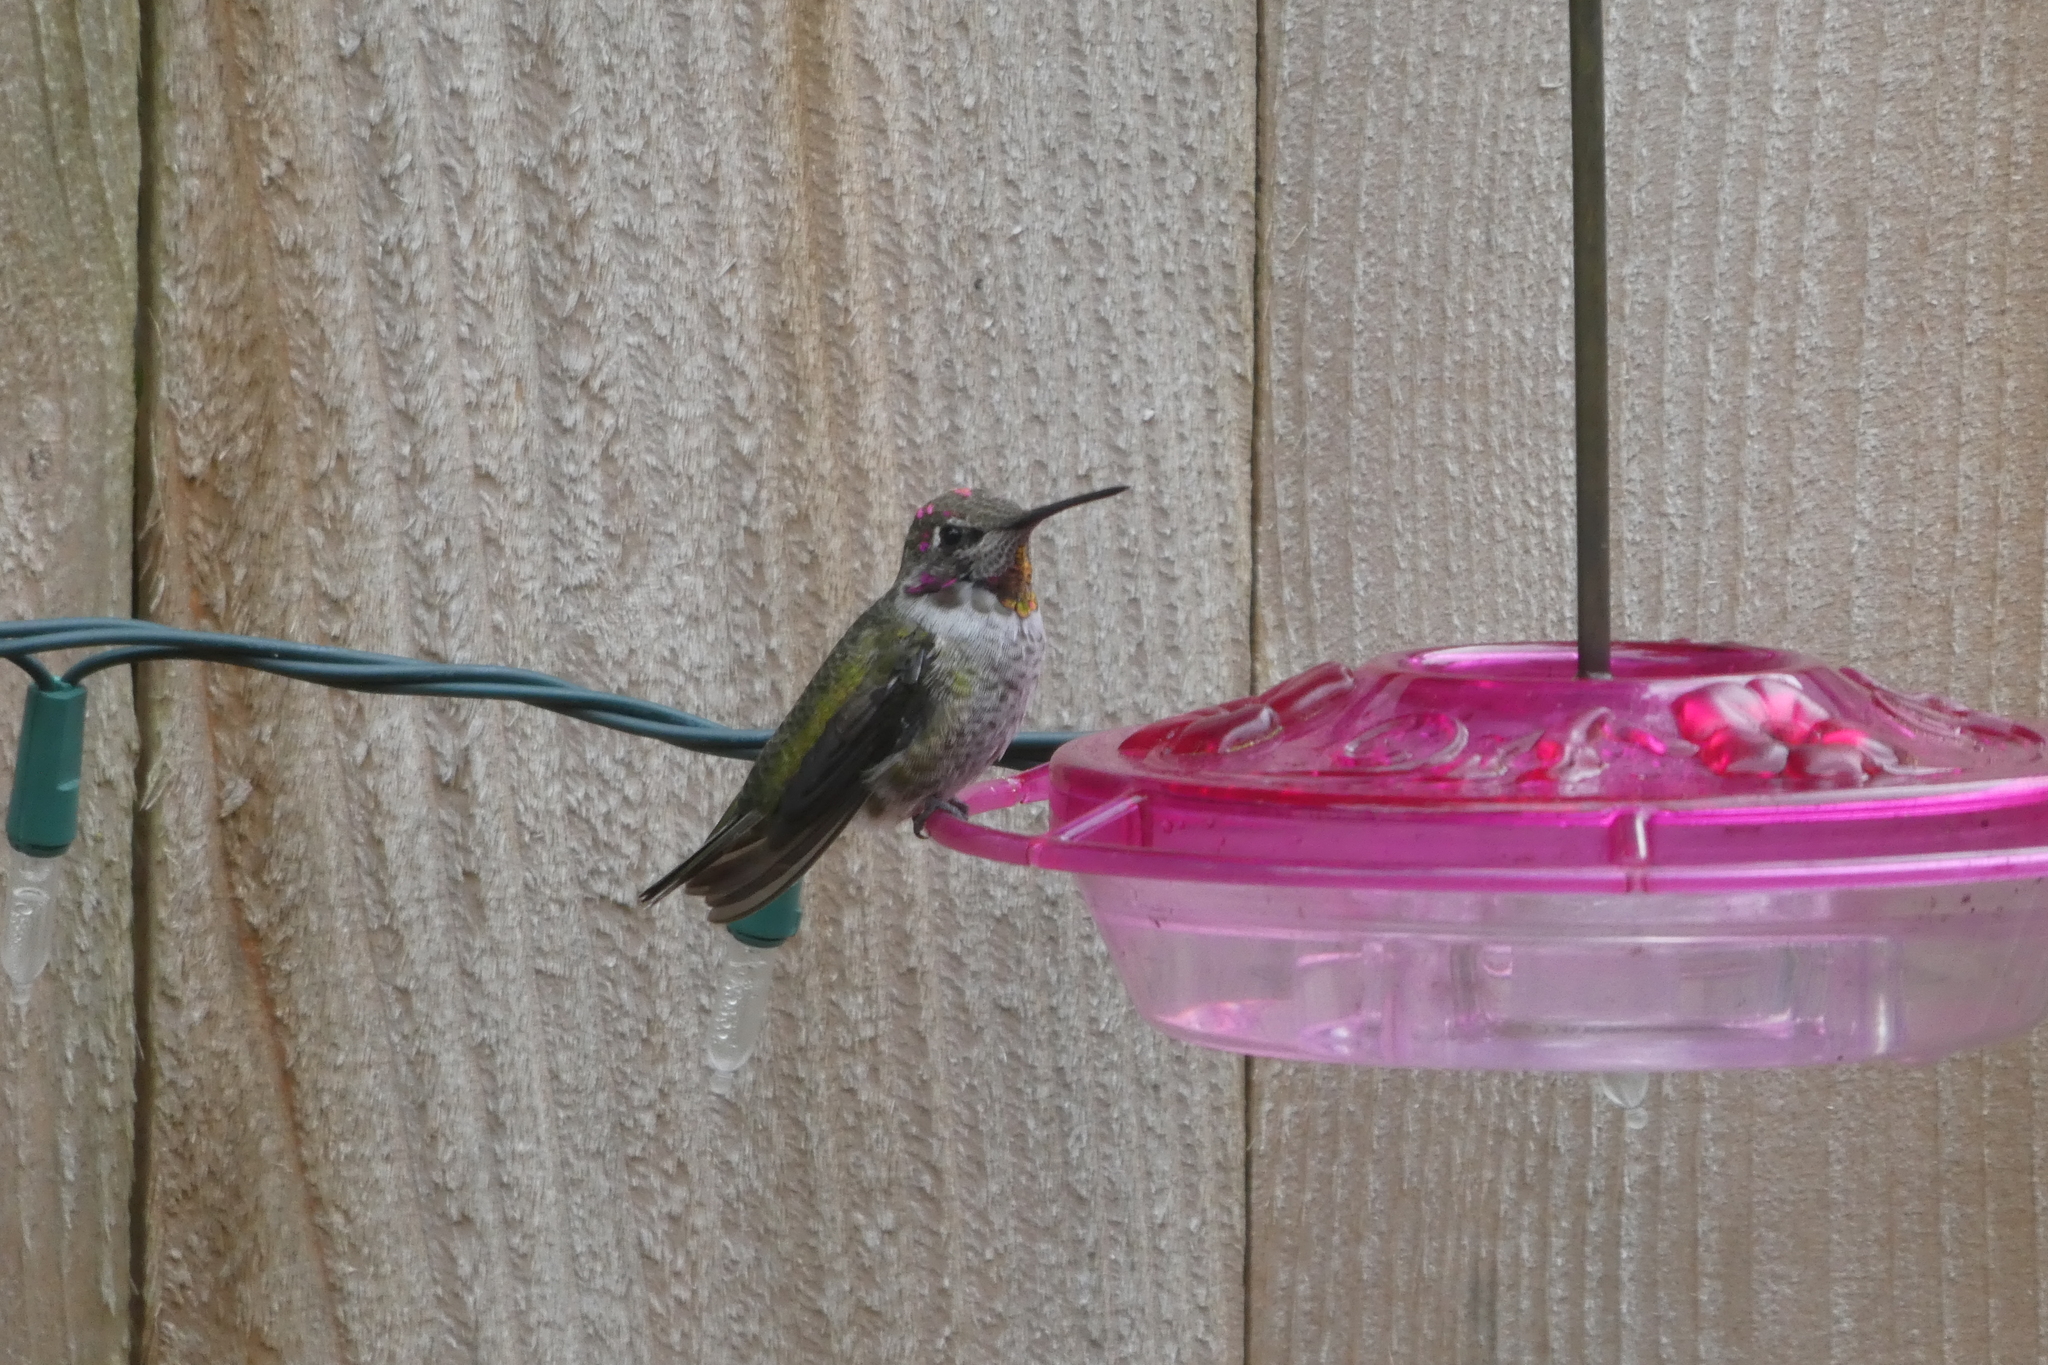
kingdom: Animalia
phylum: Chordata
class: Aves
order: Apodiformes
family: Trochilidae
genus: Calypte
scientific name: Calypte anna
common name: Anna's hummingbird
